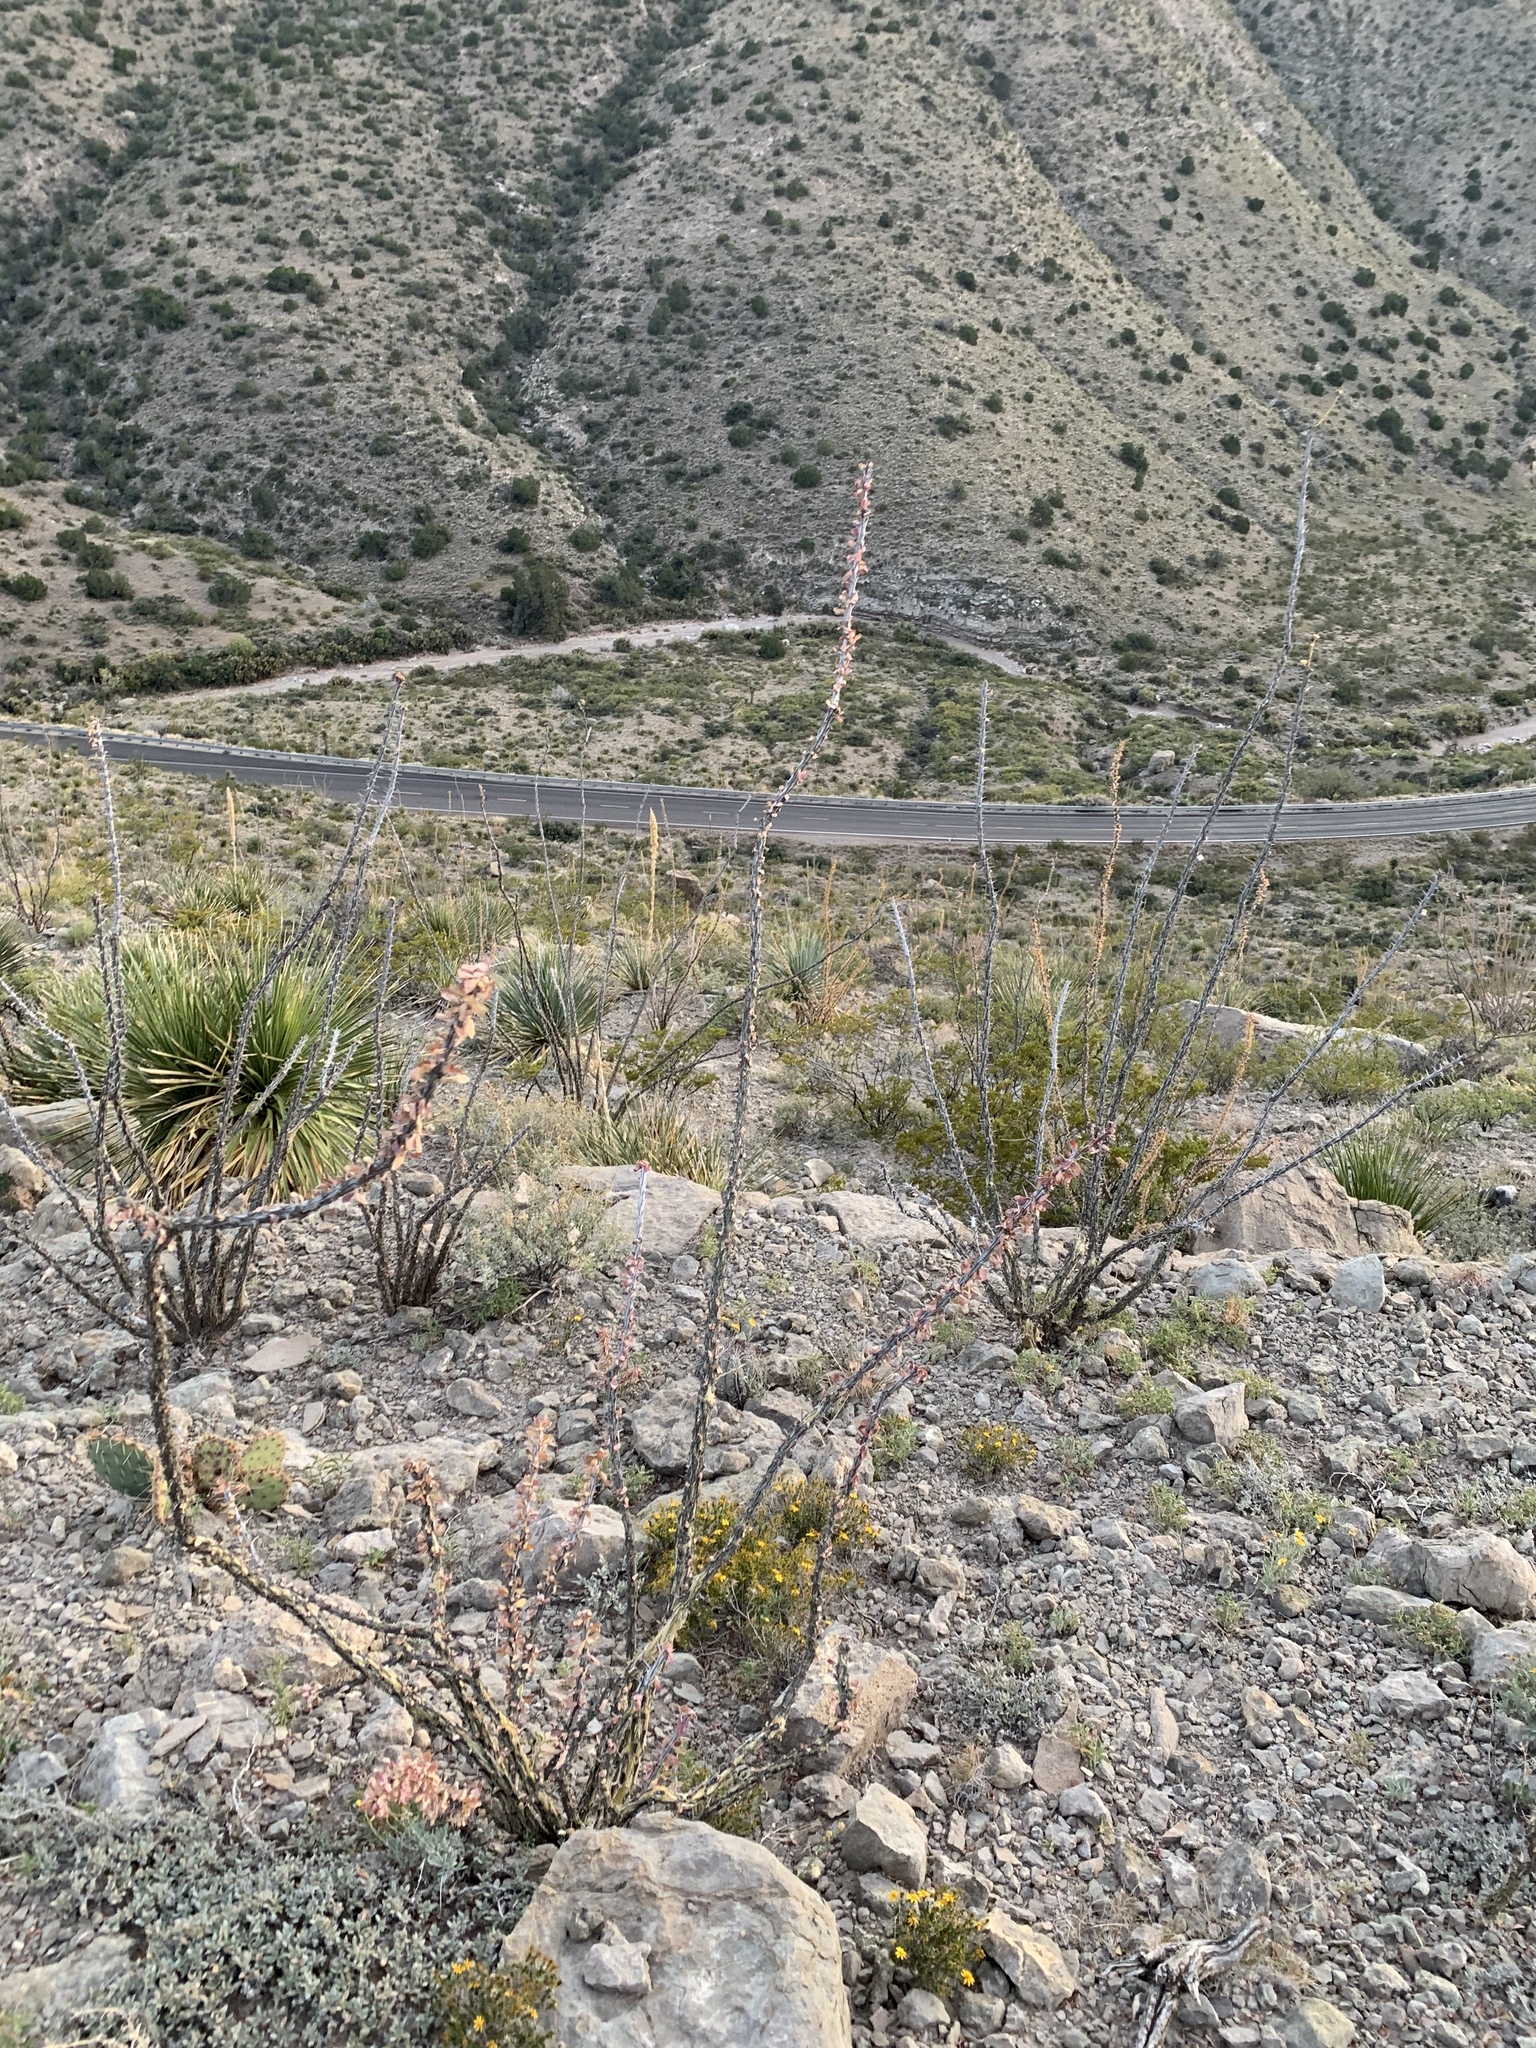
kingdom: Plantae
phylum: Tracheophyta
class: Magnoliopsida
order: Ericales
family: Fouquieriaceae
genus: Fouquieria
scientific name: Fouquieria splendens
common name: Vine-cactus
